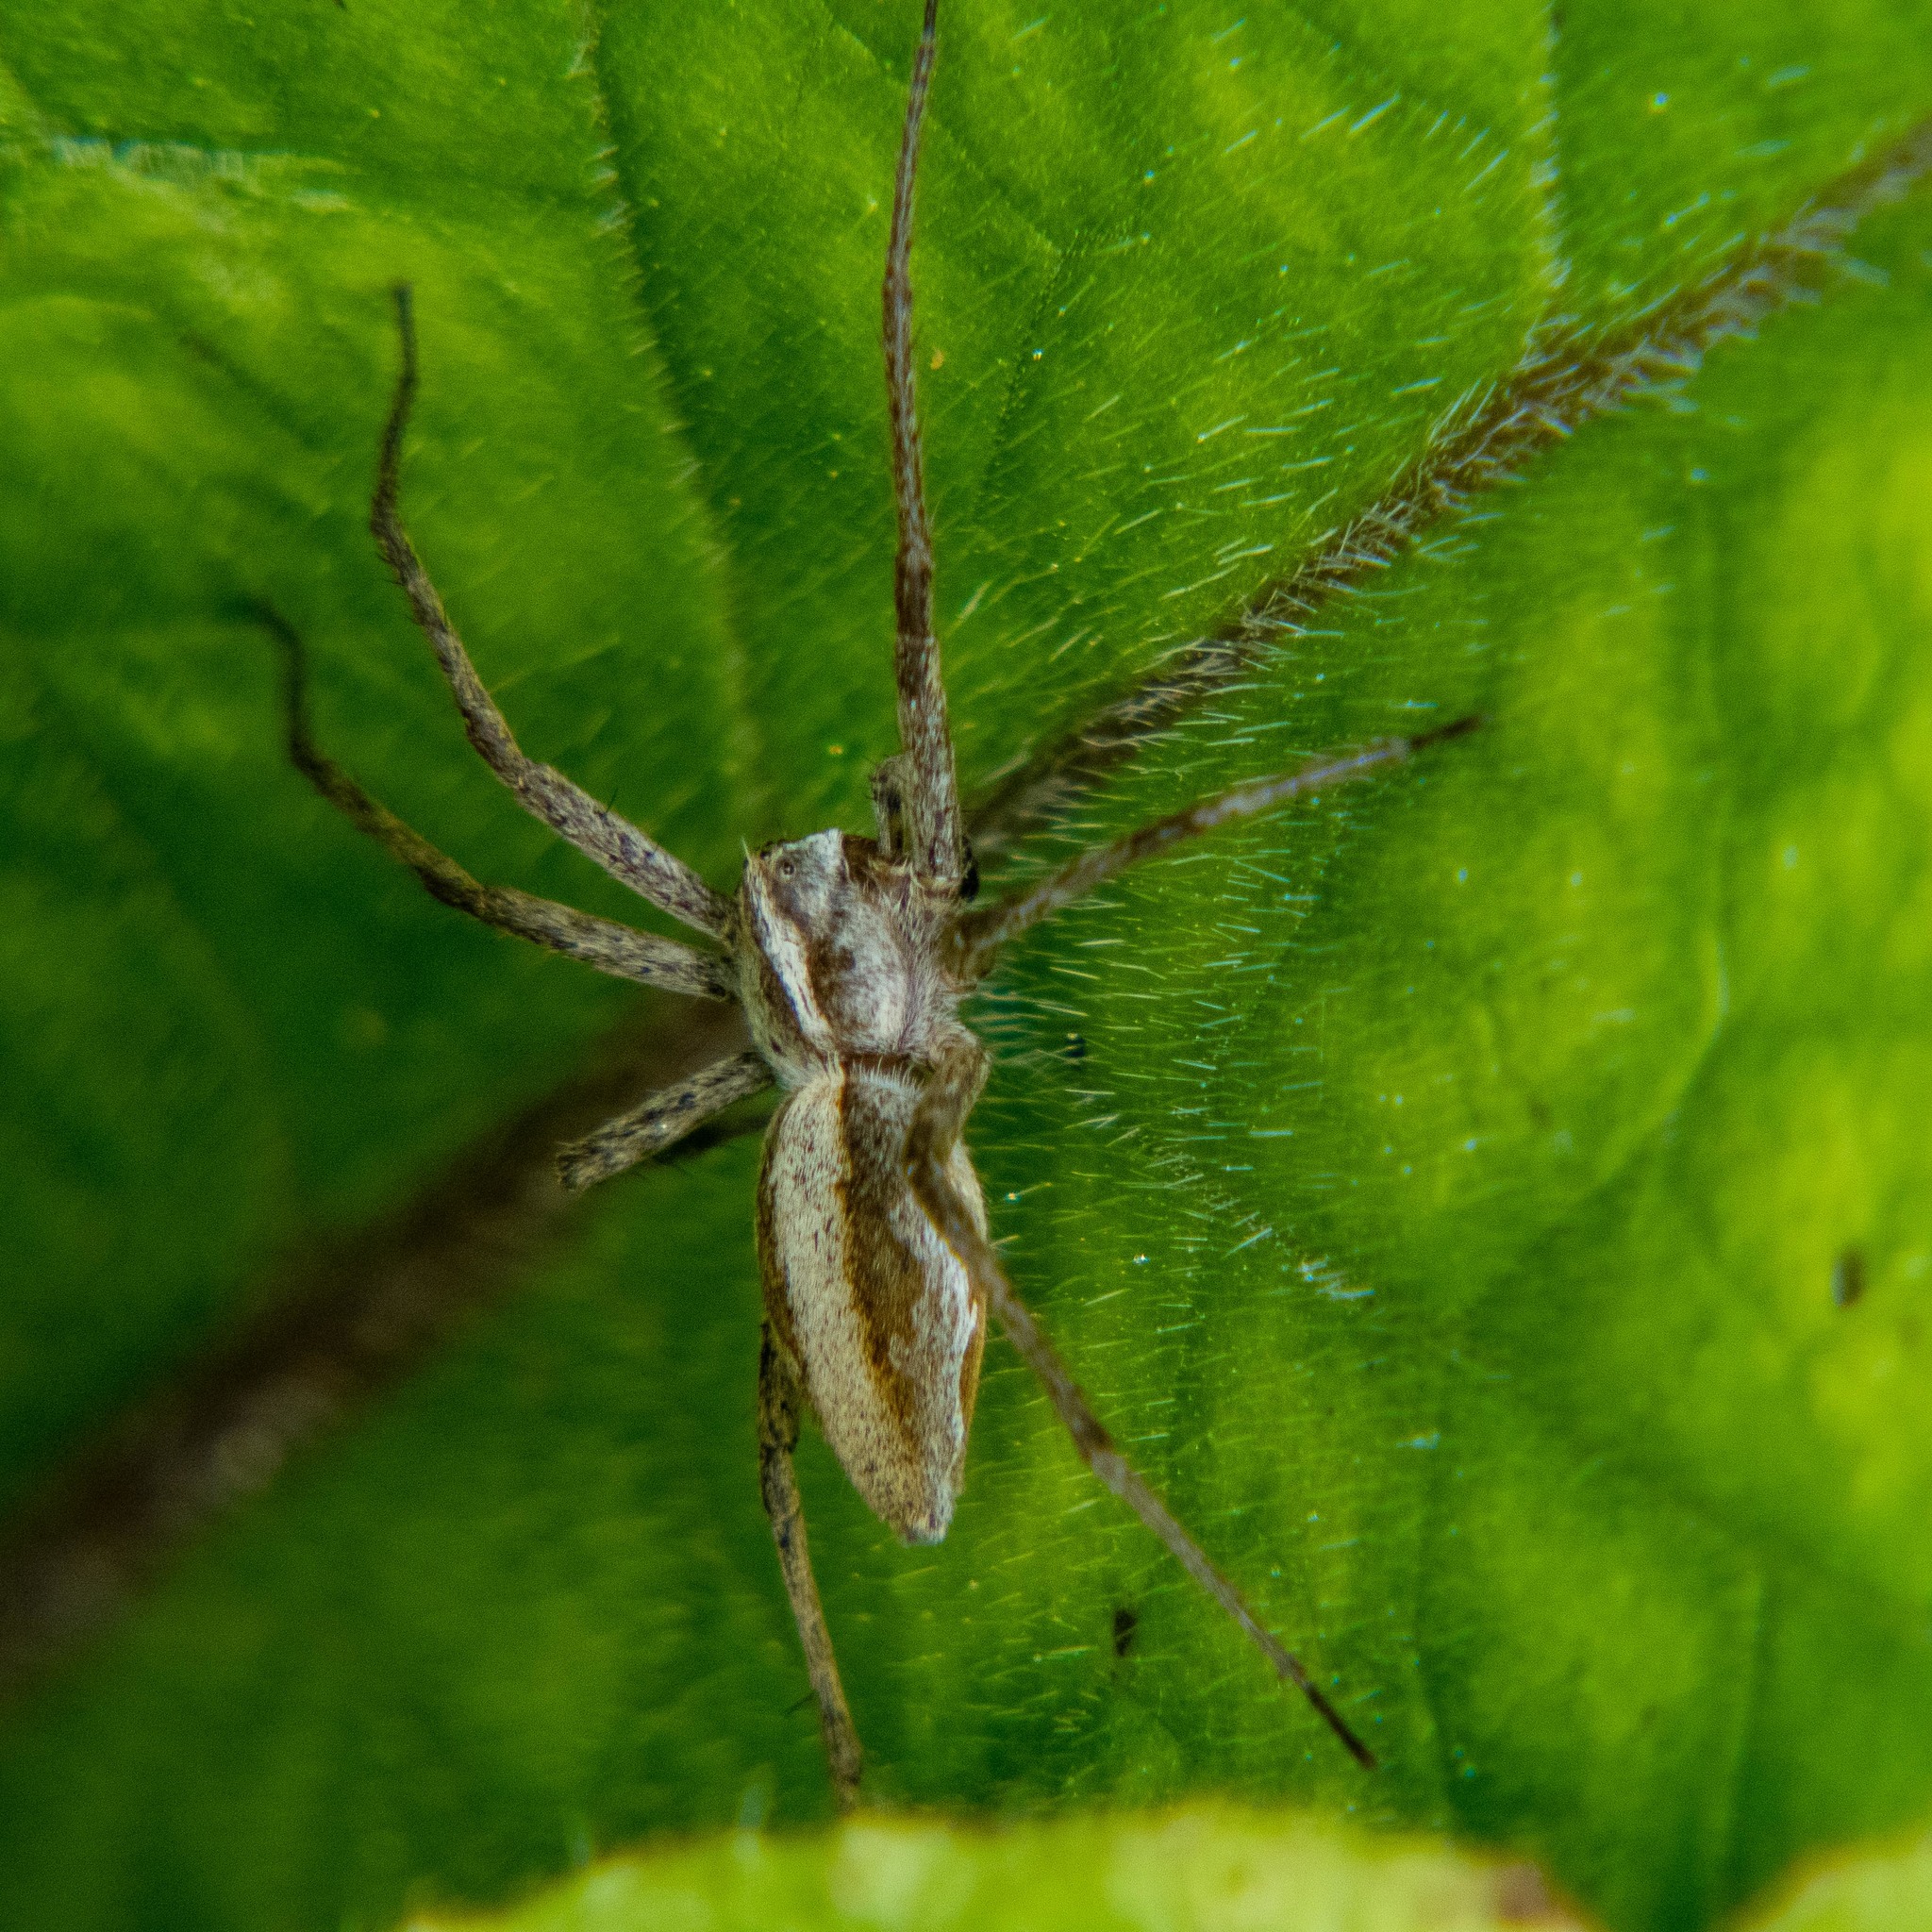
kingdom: Animalia
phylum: Arthropoda
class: Arachnida
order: Araneae
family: Pisauridae
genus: Pisaura
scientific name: Pisaura mirabilis
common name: Tent spider
